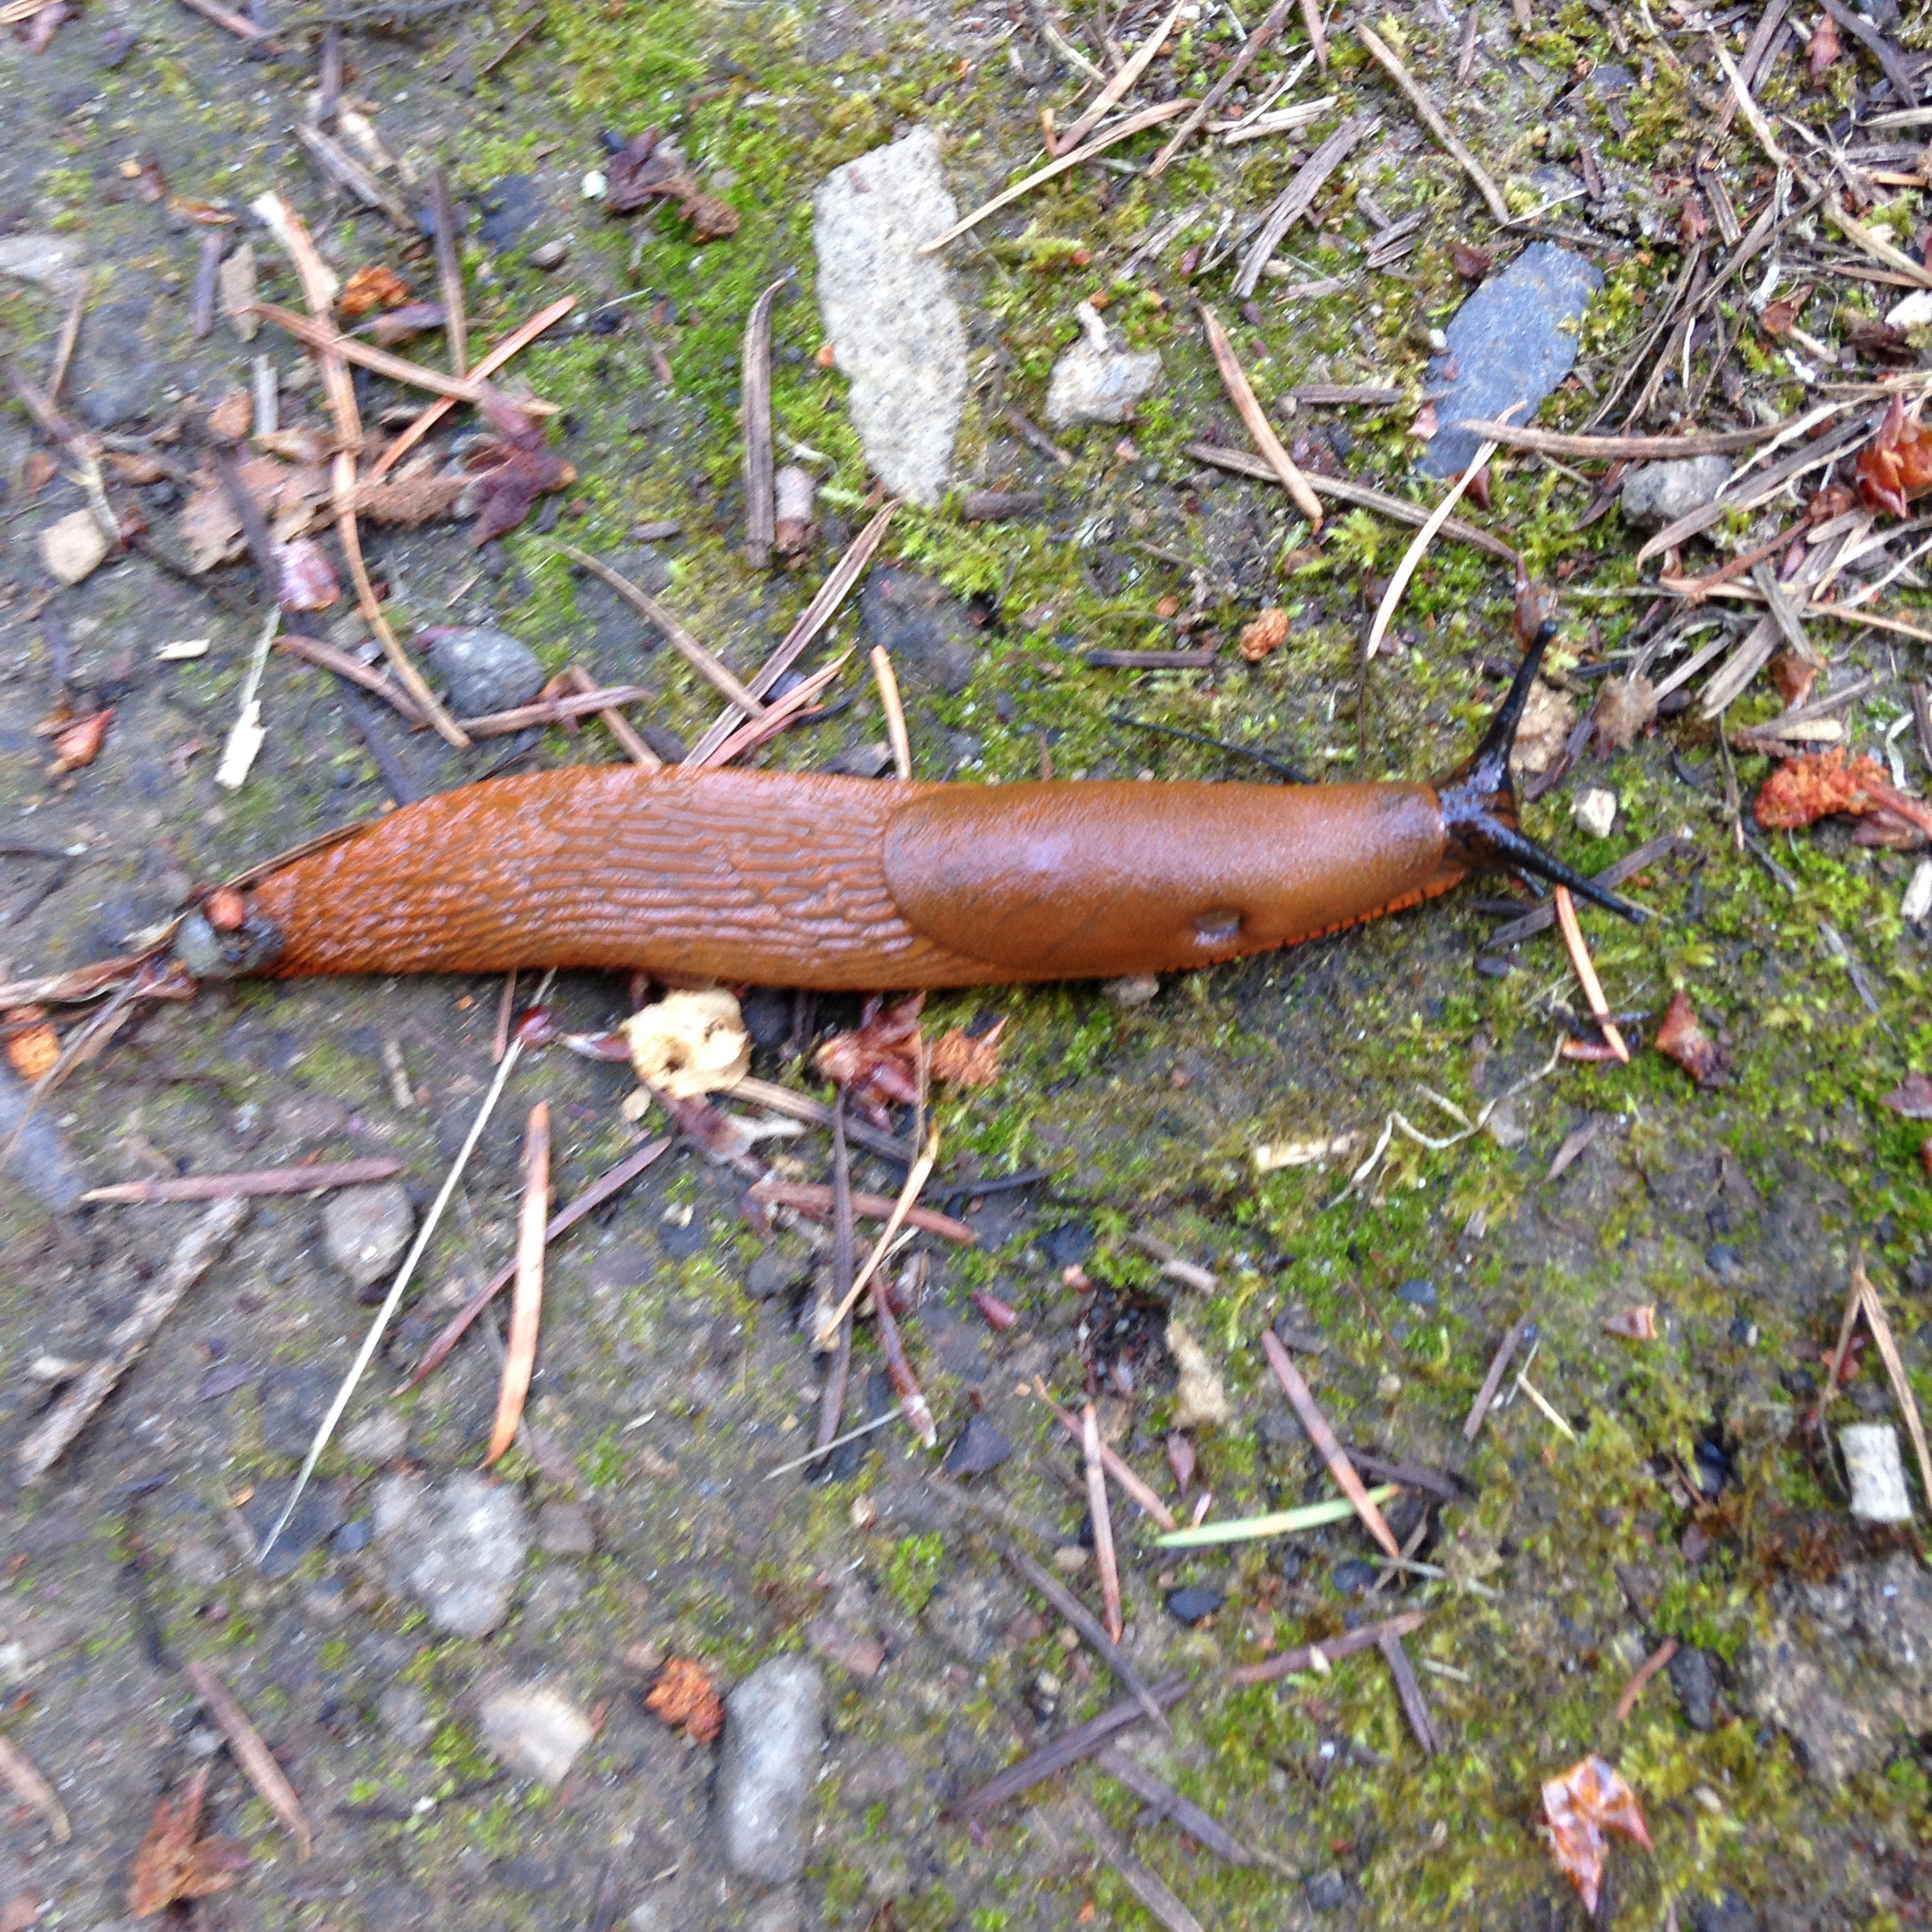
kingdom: Animalia
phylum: Mollusca
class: Gastropoda
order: Stylommatophora
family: Arionidae
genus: Arion
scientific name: Arion rufus
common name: Chocolate arion
